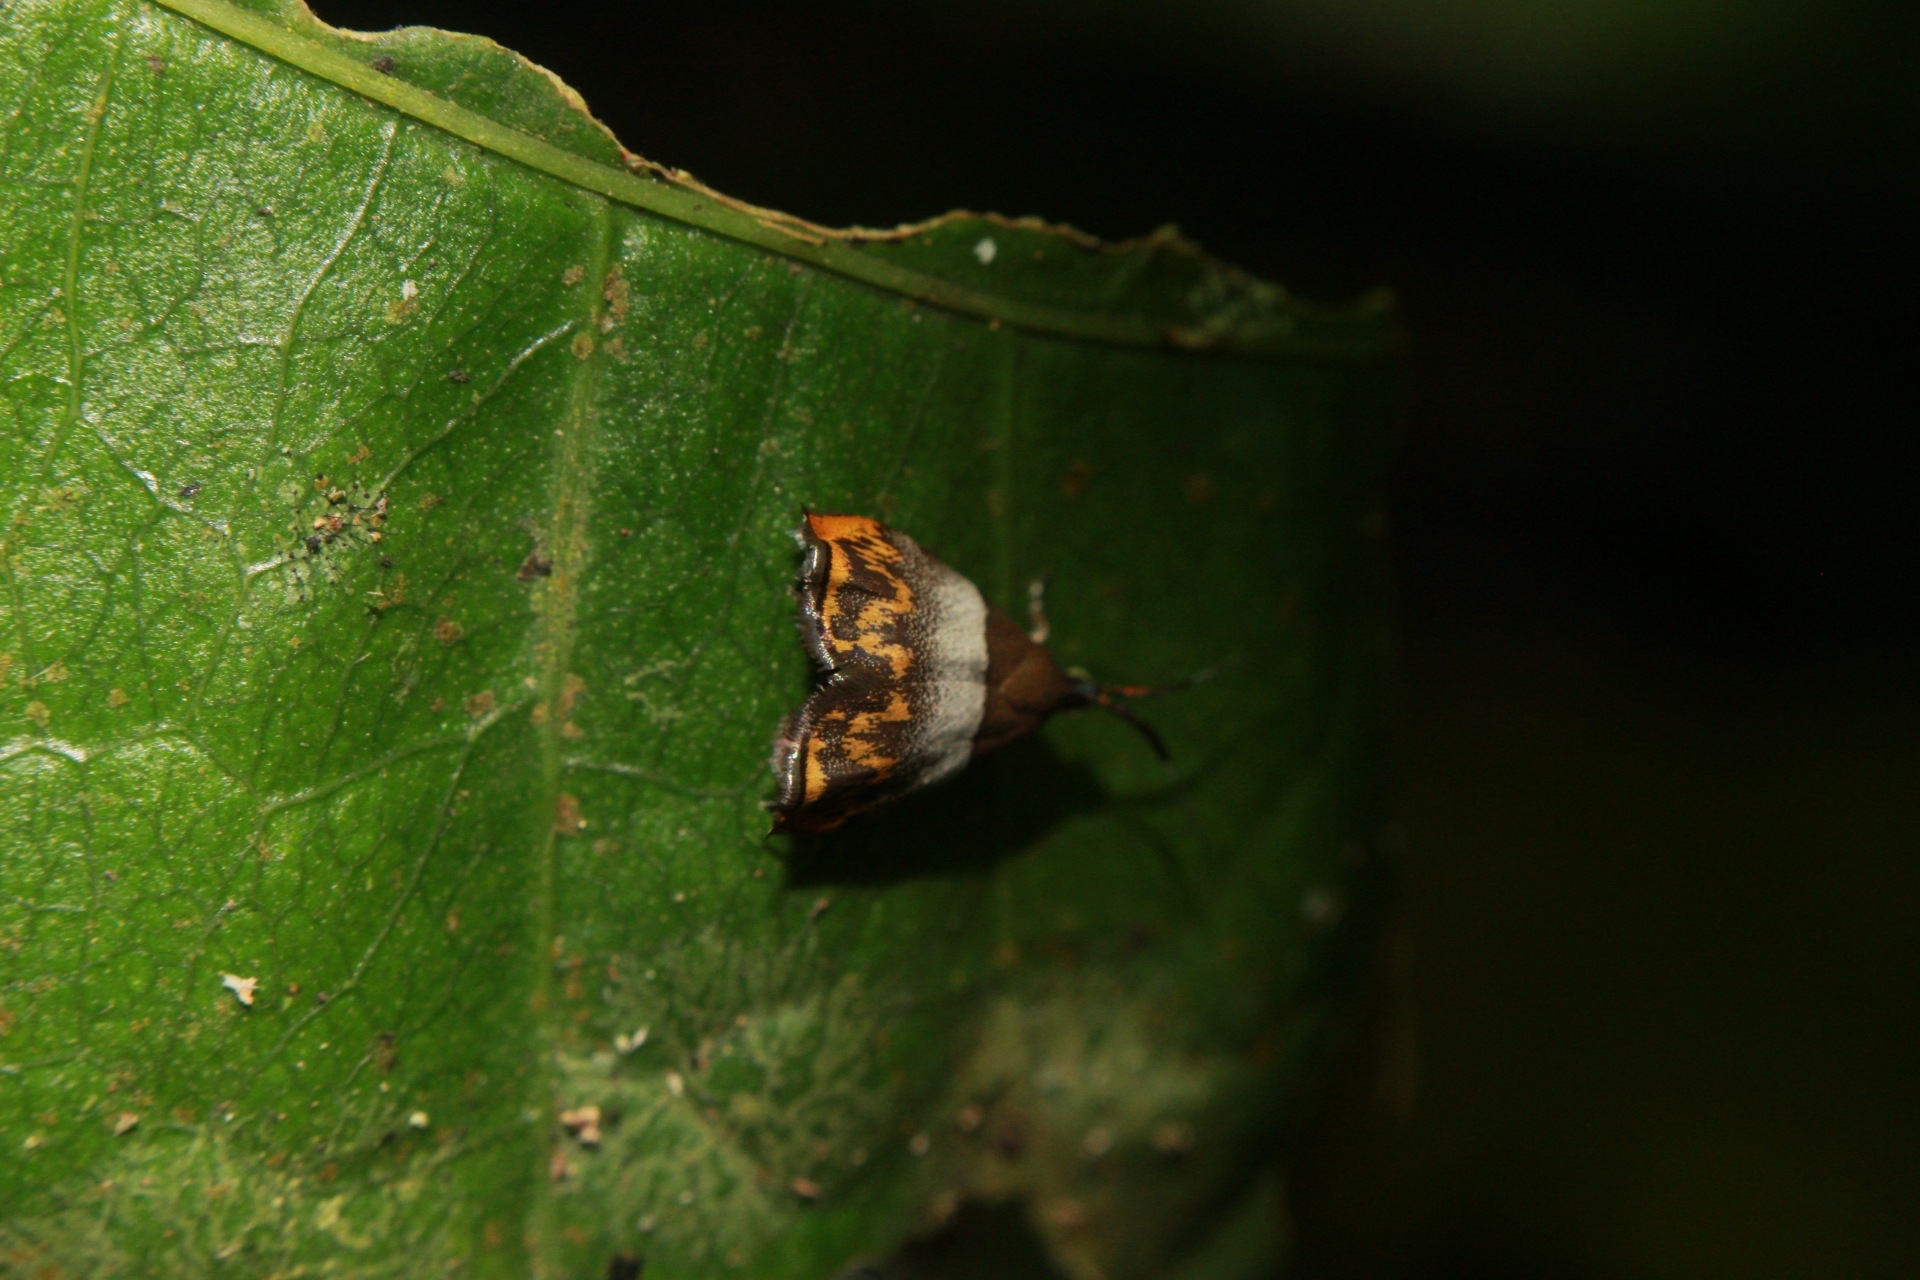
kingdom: Animalia
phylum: Arthropoda
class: Insecta
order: Lepidoptera
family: Choreutidae
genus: Tortyra
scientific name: Tortyra bigerana
